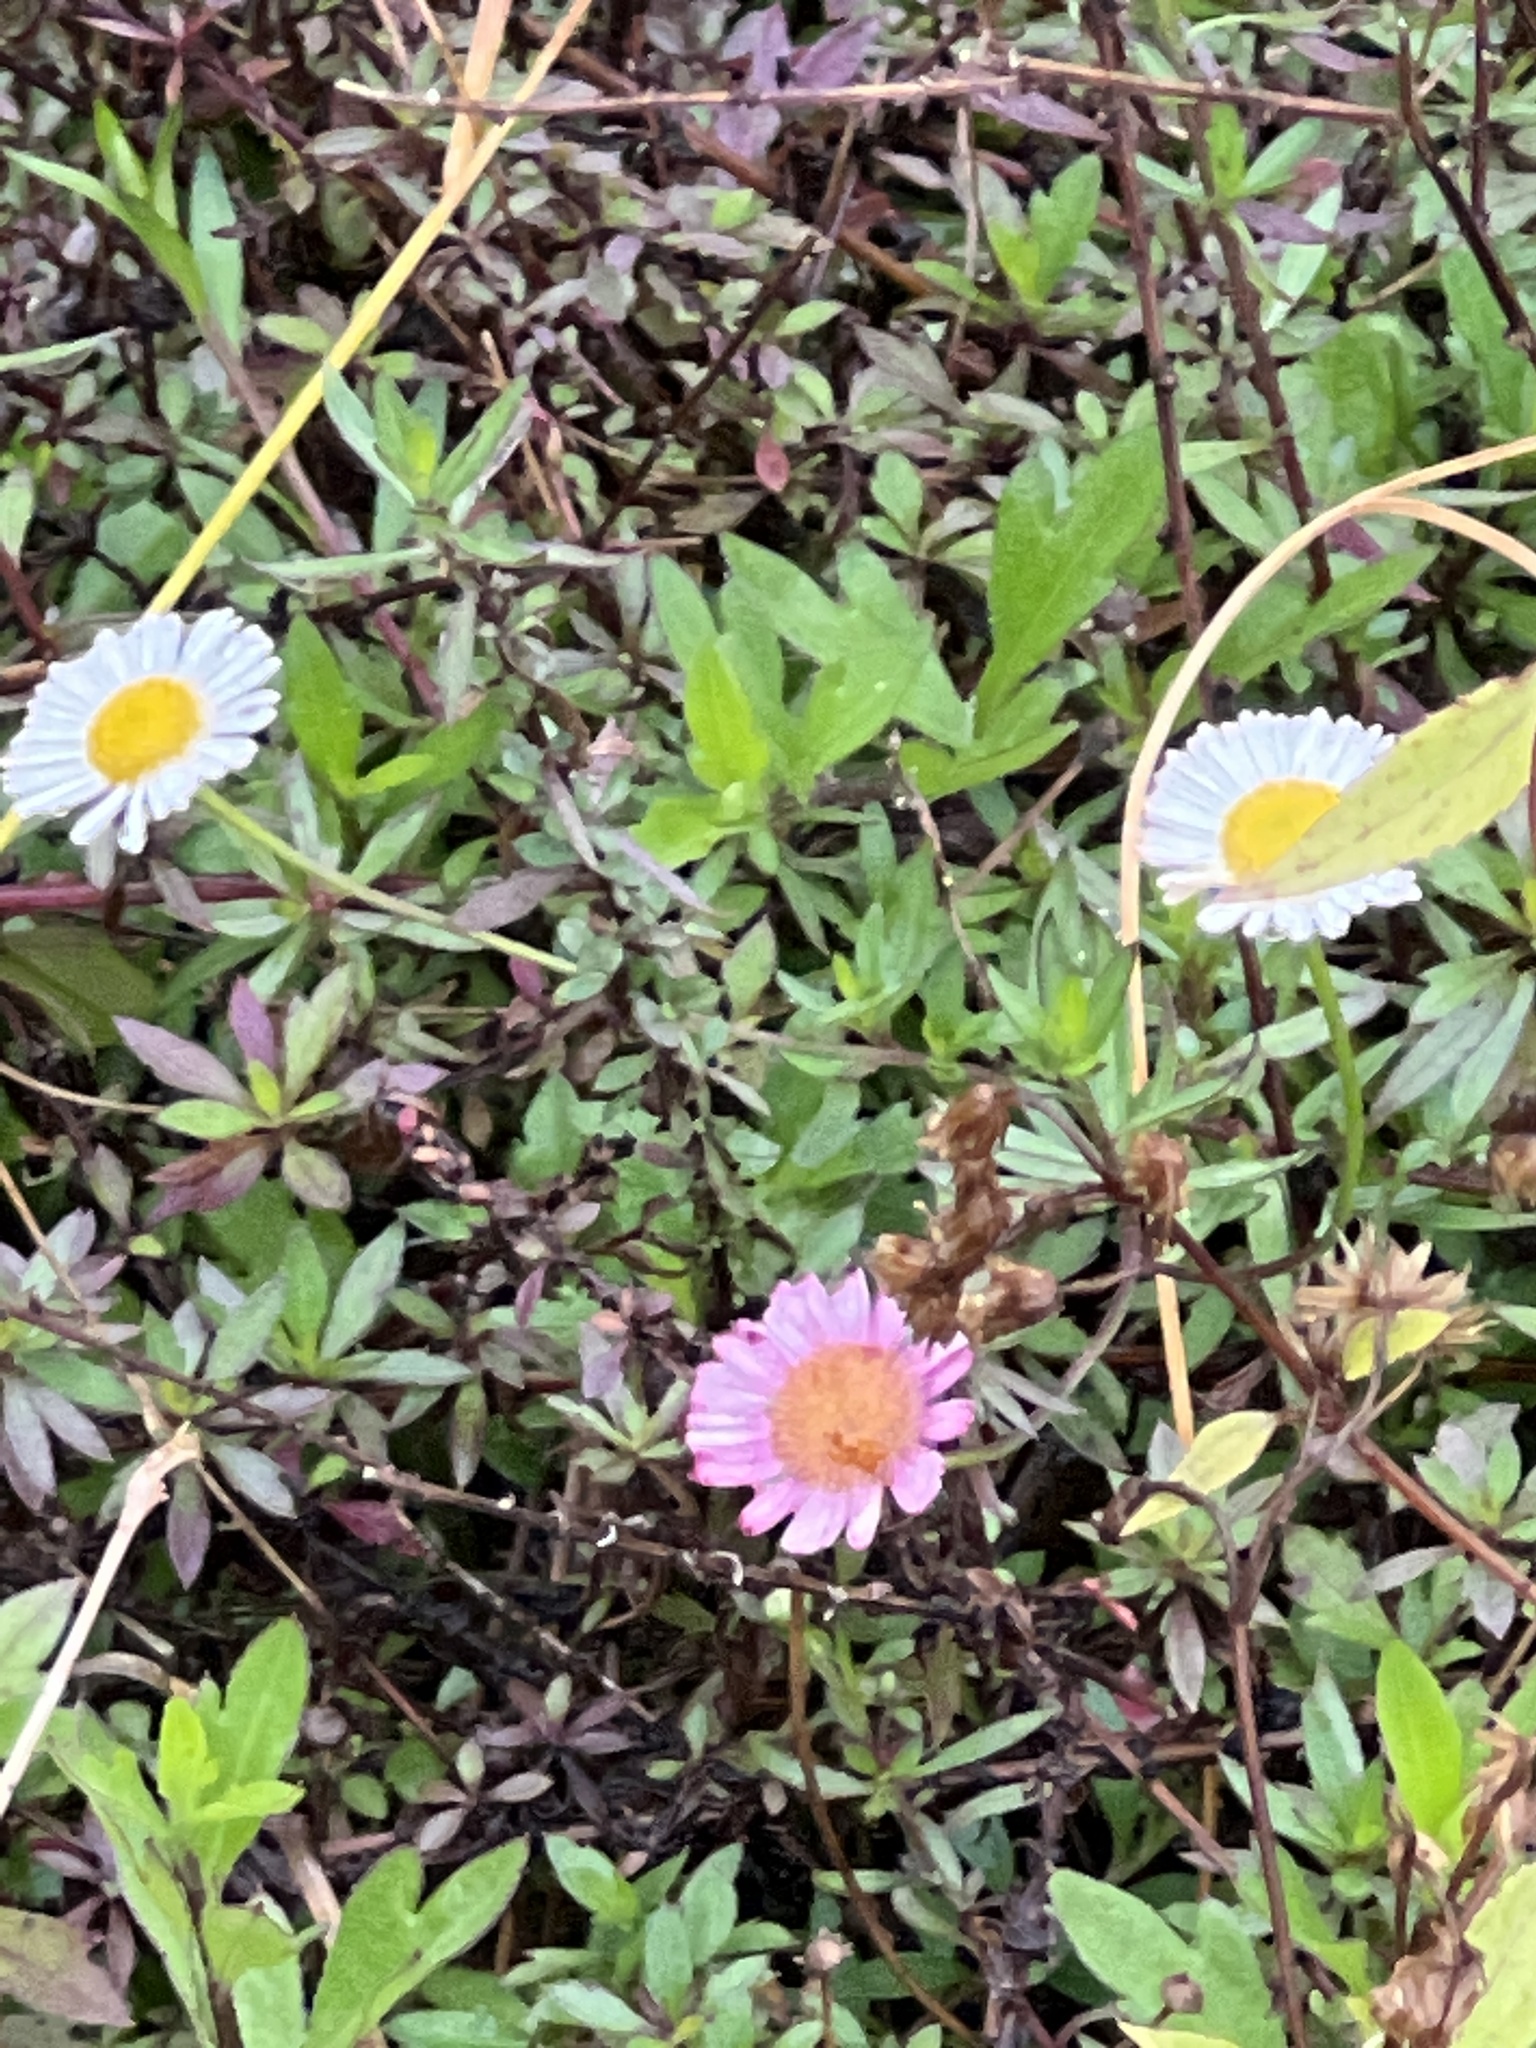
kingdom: Plantae
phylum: Tracheophyta
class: Magnoliopsida
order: Asterales
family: Asteraceae
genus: Erigeron
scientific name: Erigeron karvinskianus
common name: Mexican fleabane
